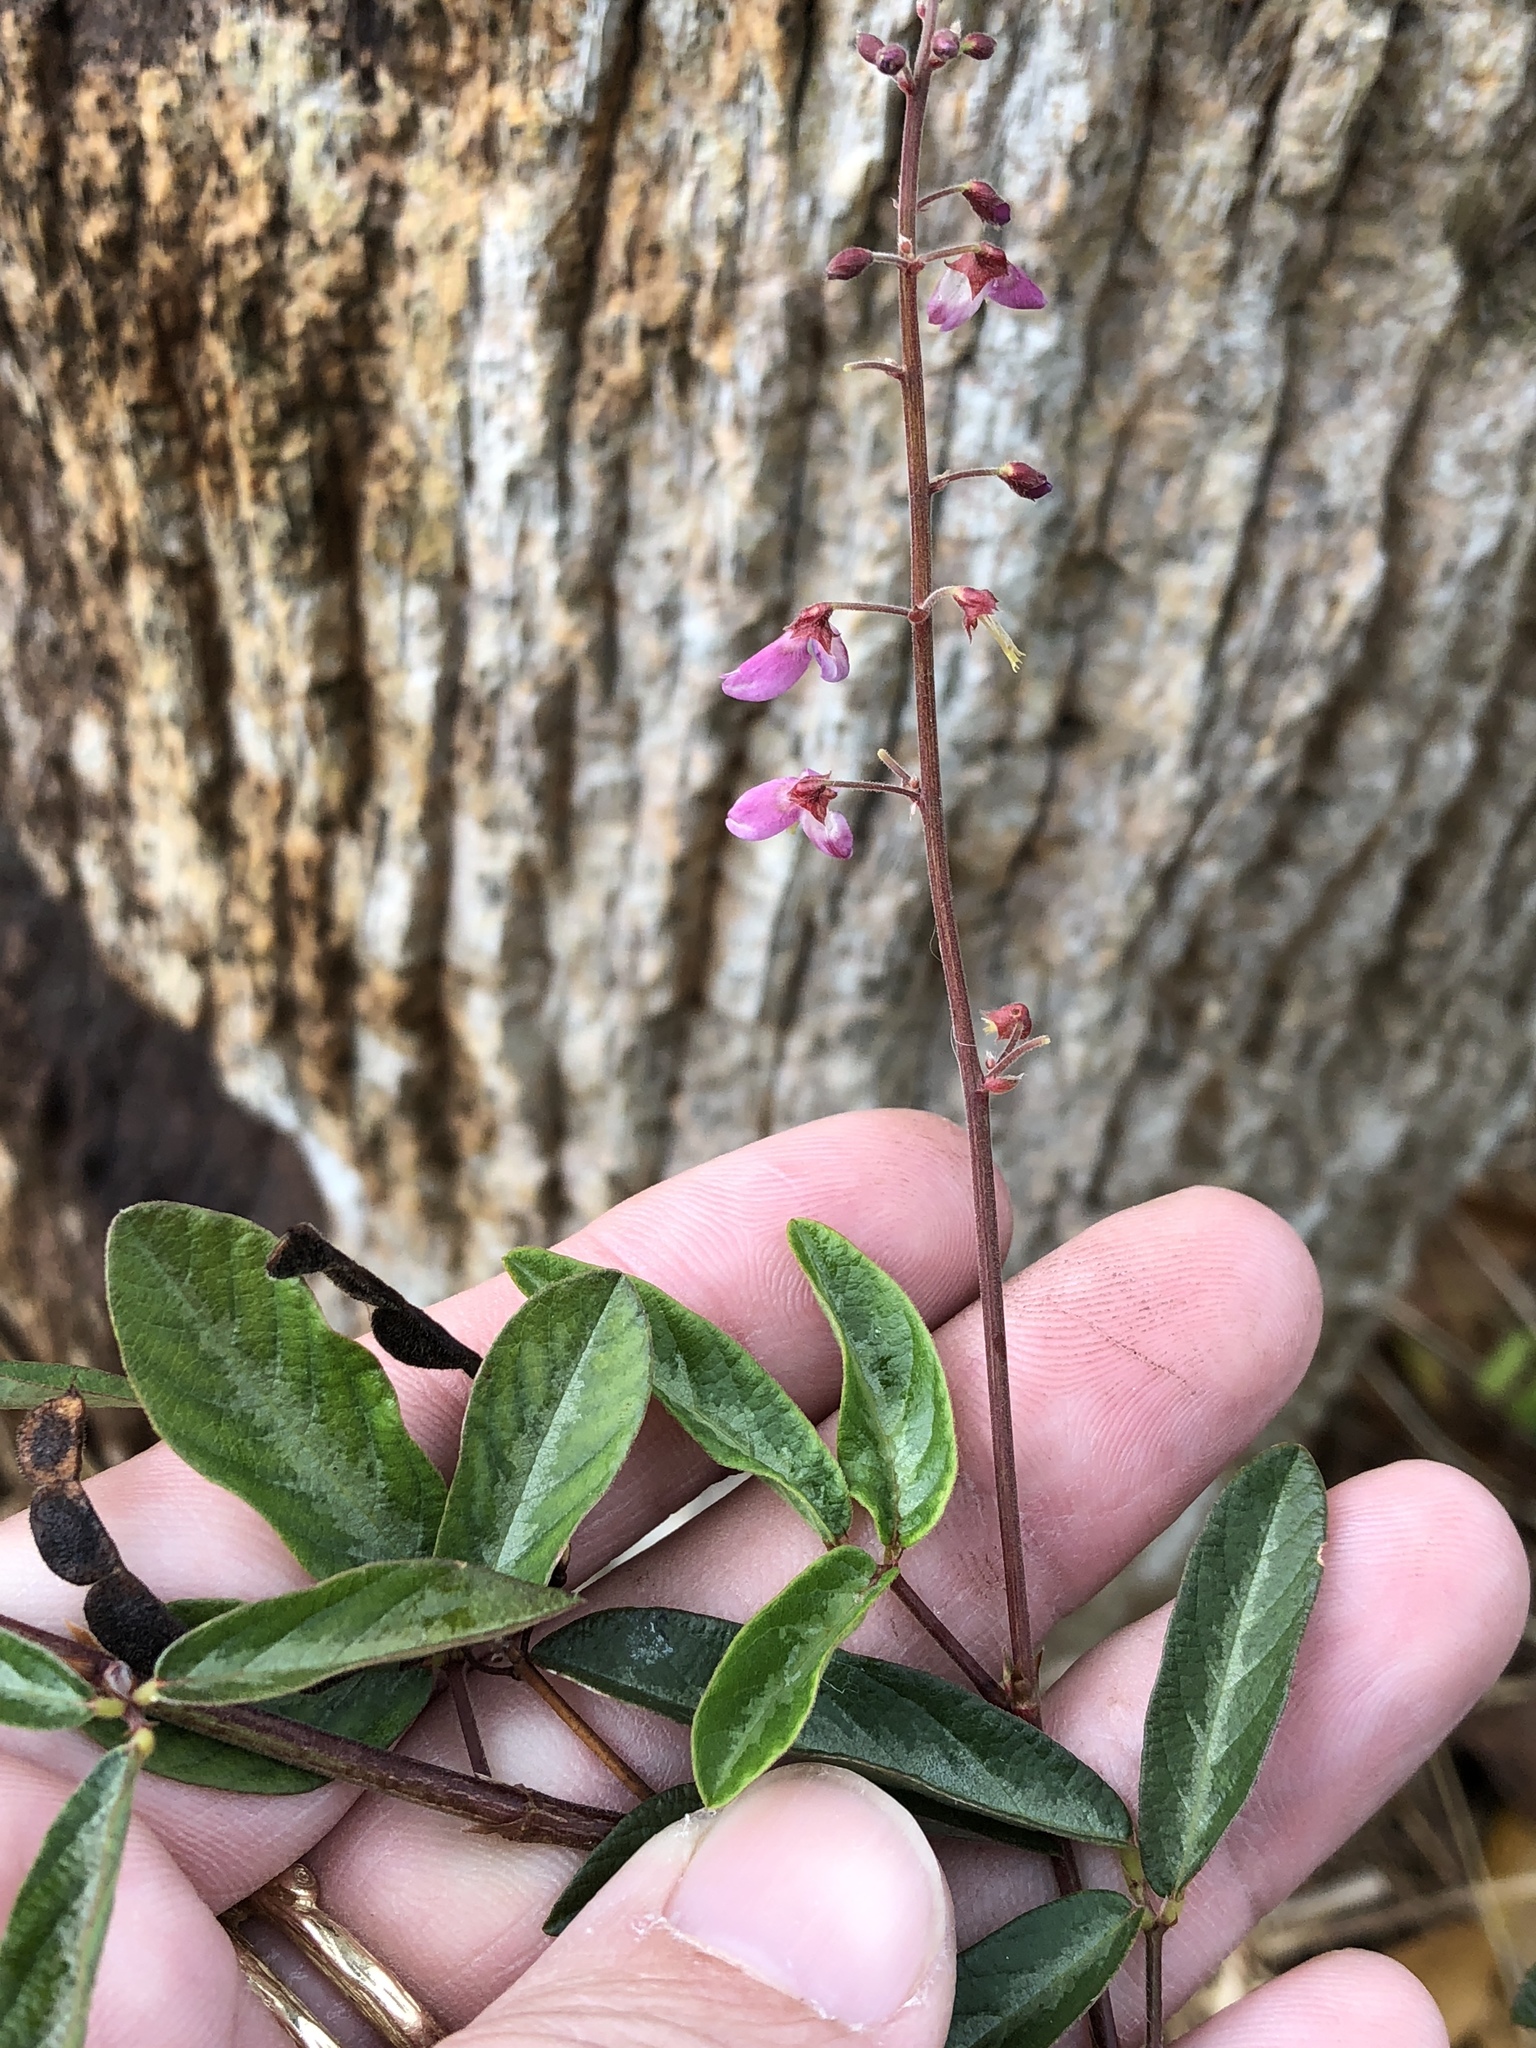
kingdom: Plantae
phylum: Tracheophyta
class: Magnoliopsida
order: Fabales
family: Fabaceae
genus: Desmodium
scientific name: Desmodium incanum
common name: Tickclover
